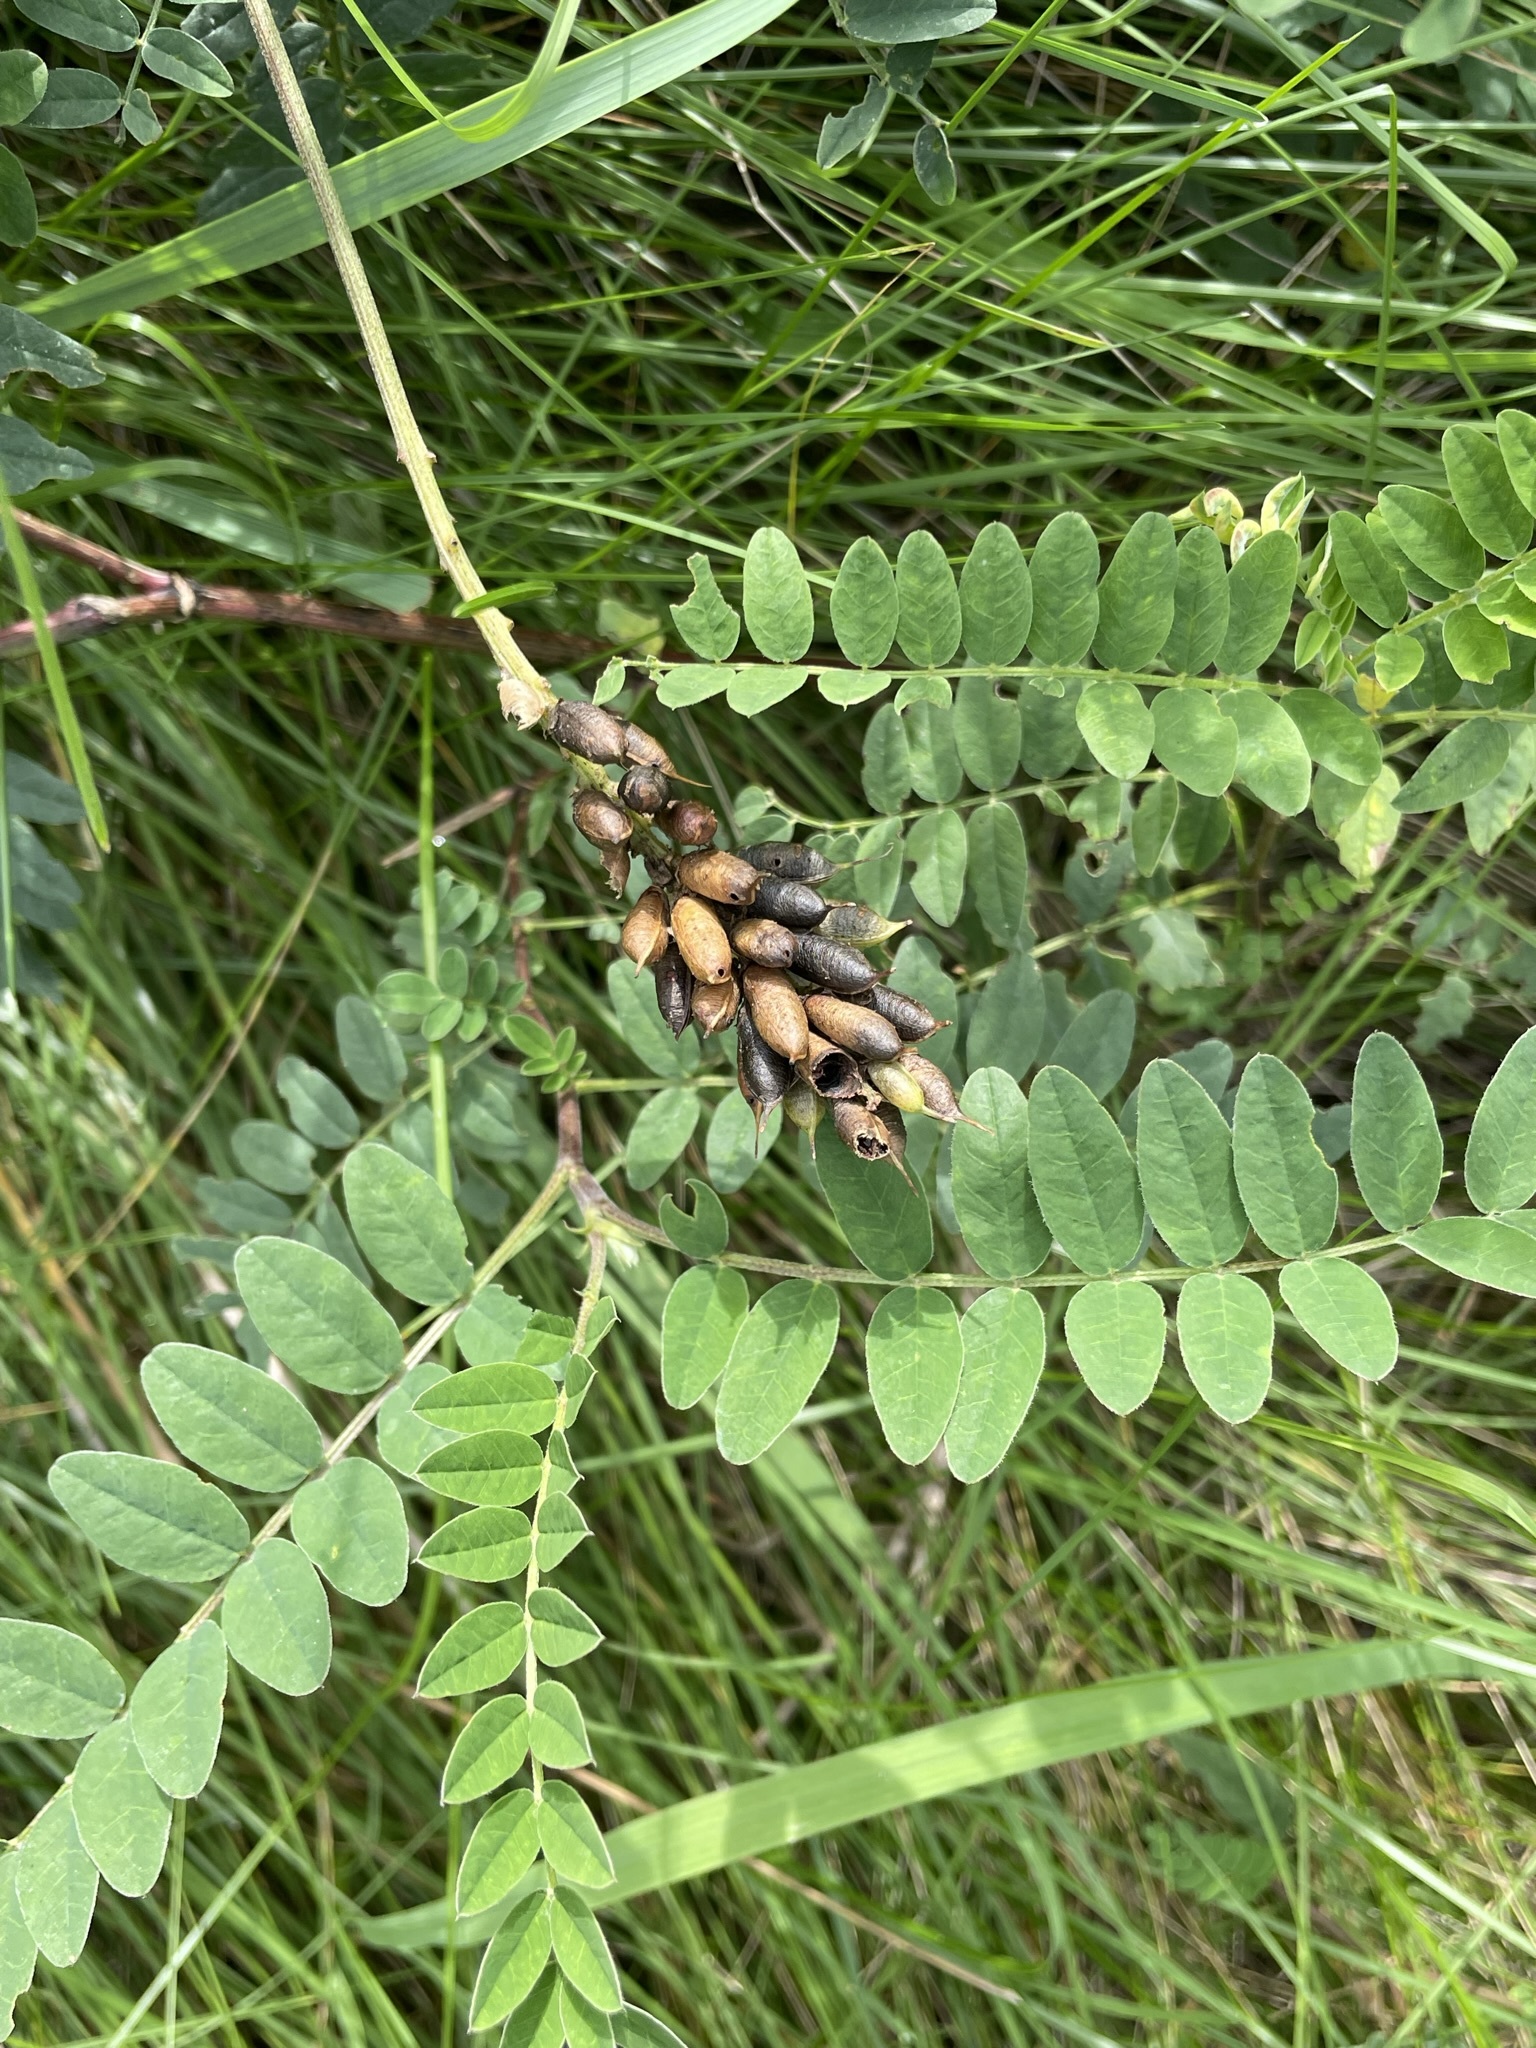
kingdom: Plantae
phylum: Tracheophyta
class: Magnoliopsida
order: Fabales
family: Fabaceae
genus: Astragalus
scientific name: Astragalus canadensis
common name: Canada milk-vetch
